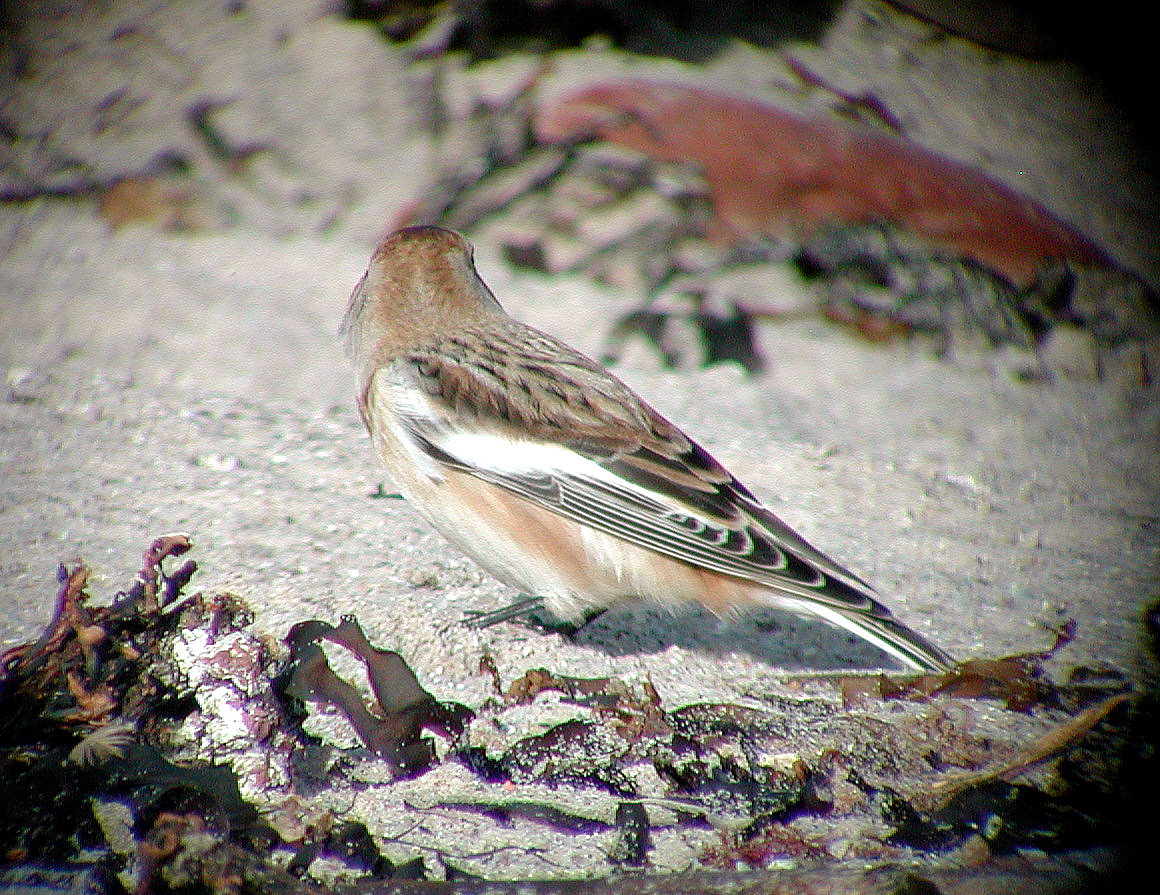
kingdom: Animalia
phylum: Chordata
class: Aves
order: Passeriformes
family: Calcariidae
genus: Plectrophenax
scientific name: Plectrophenax nivalis
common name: Snow bunting
